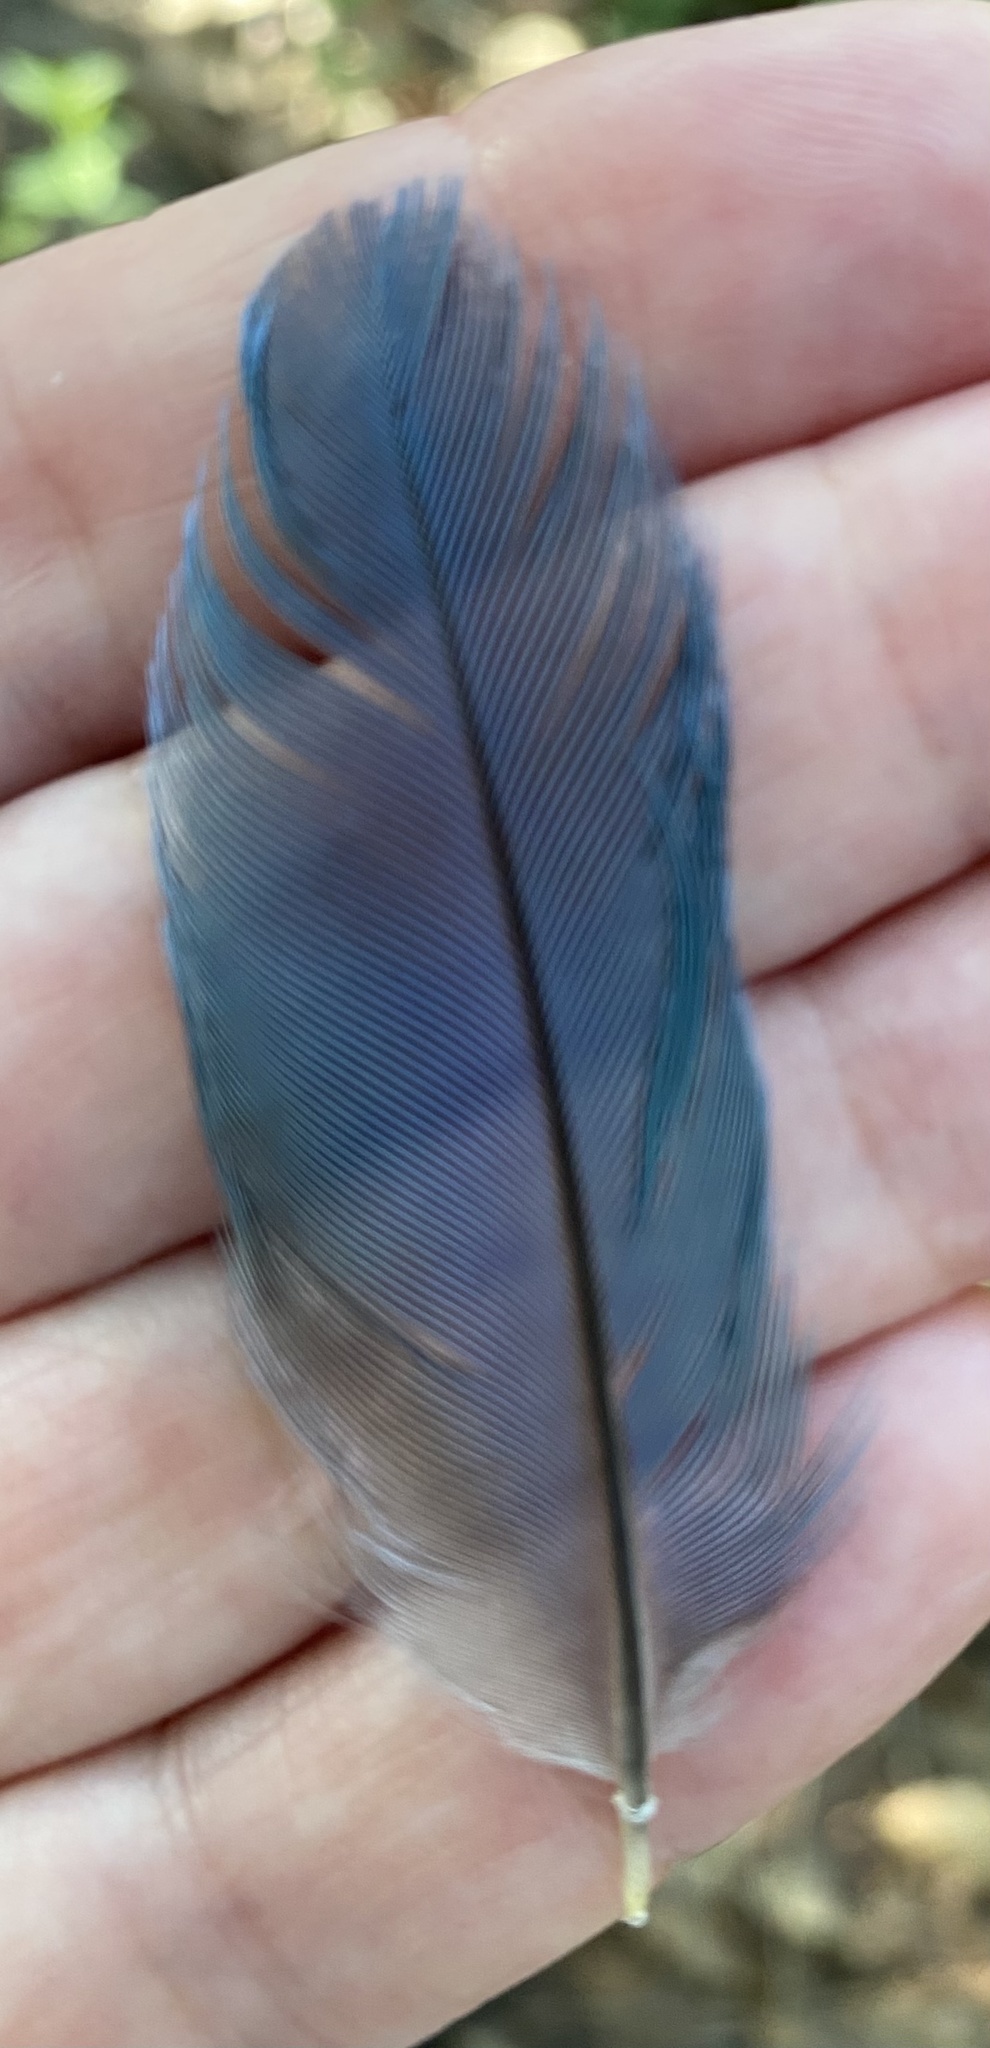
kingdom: Animalia
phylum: Chordata
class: Aves
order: Passeriformes
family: Corvidae
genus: Cyanocorax
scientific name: Cyanocorax melanocyaneus
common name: Bushy-crested jay
